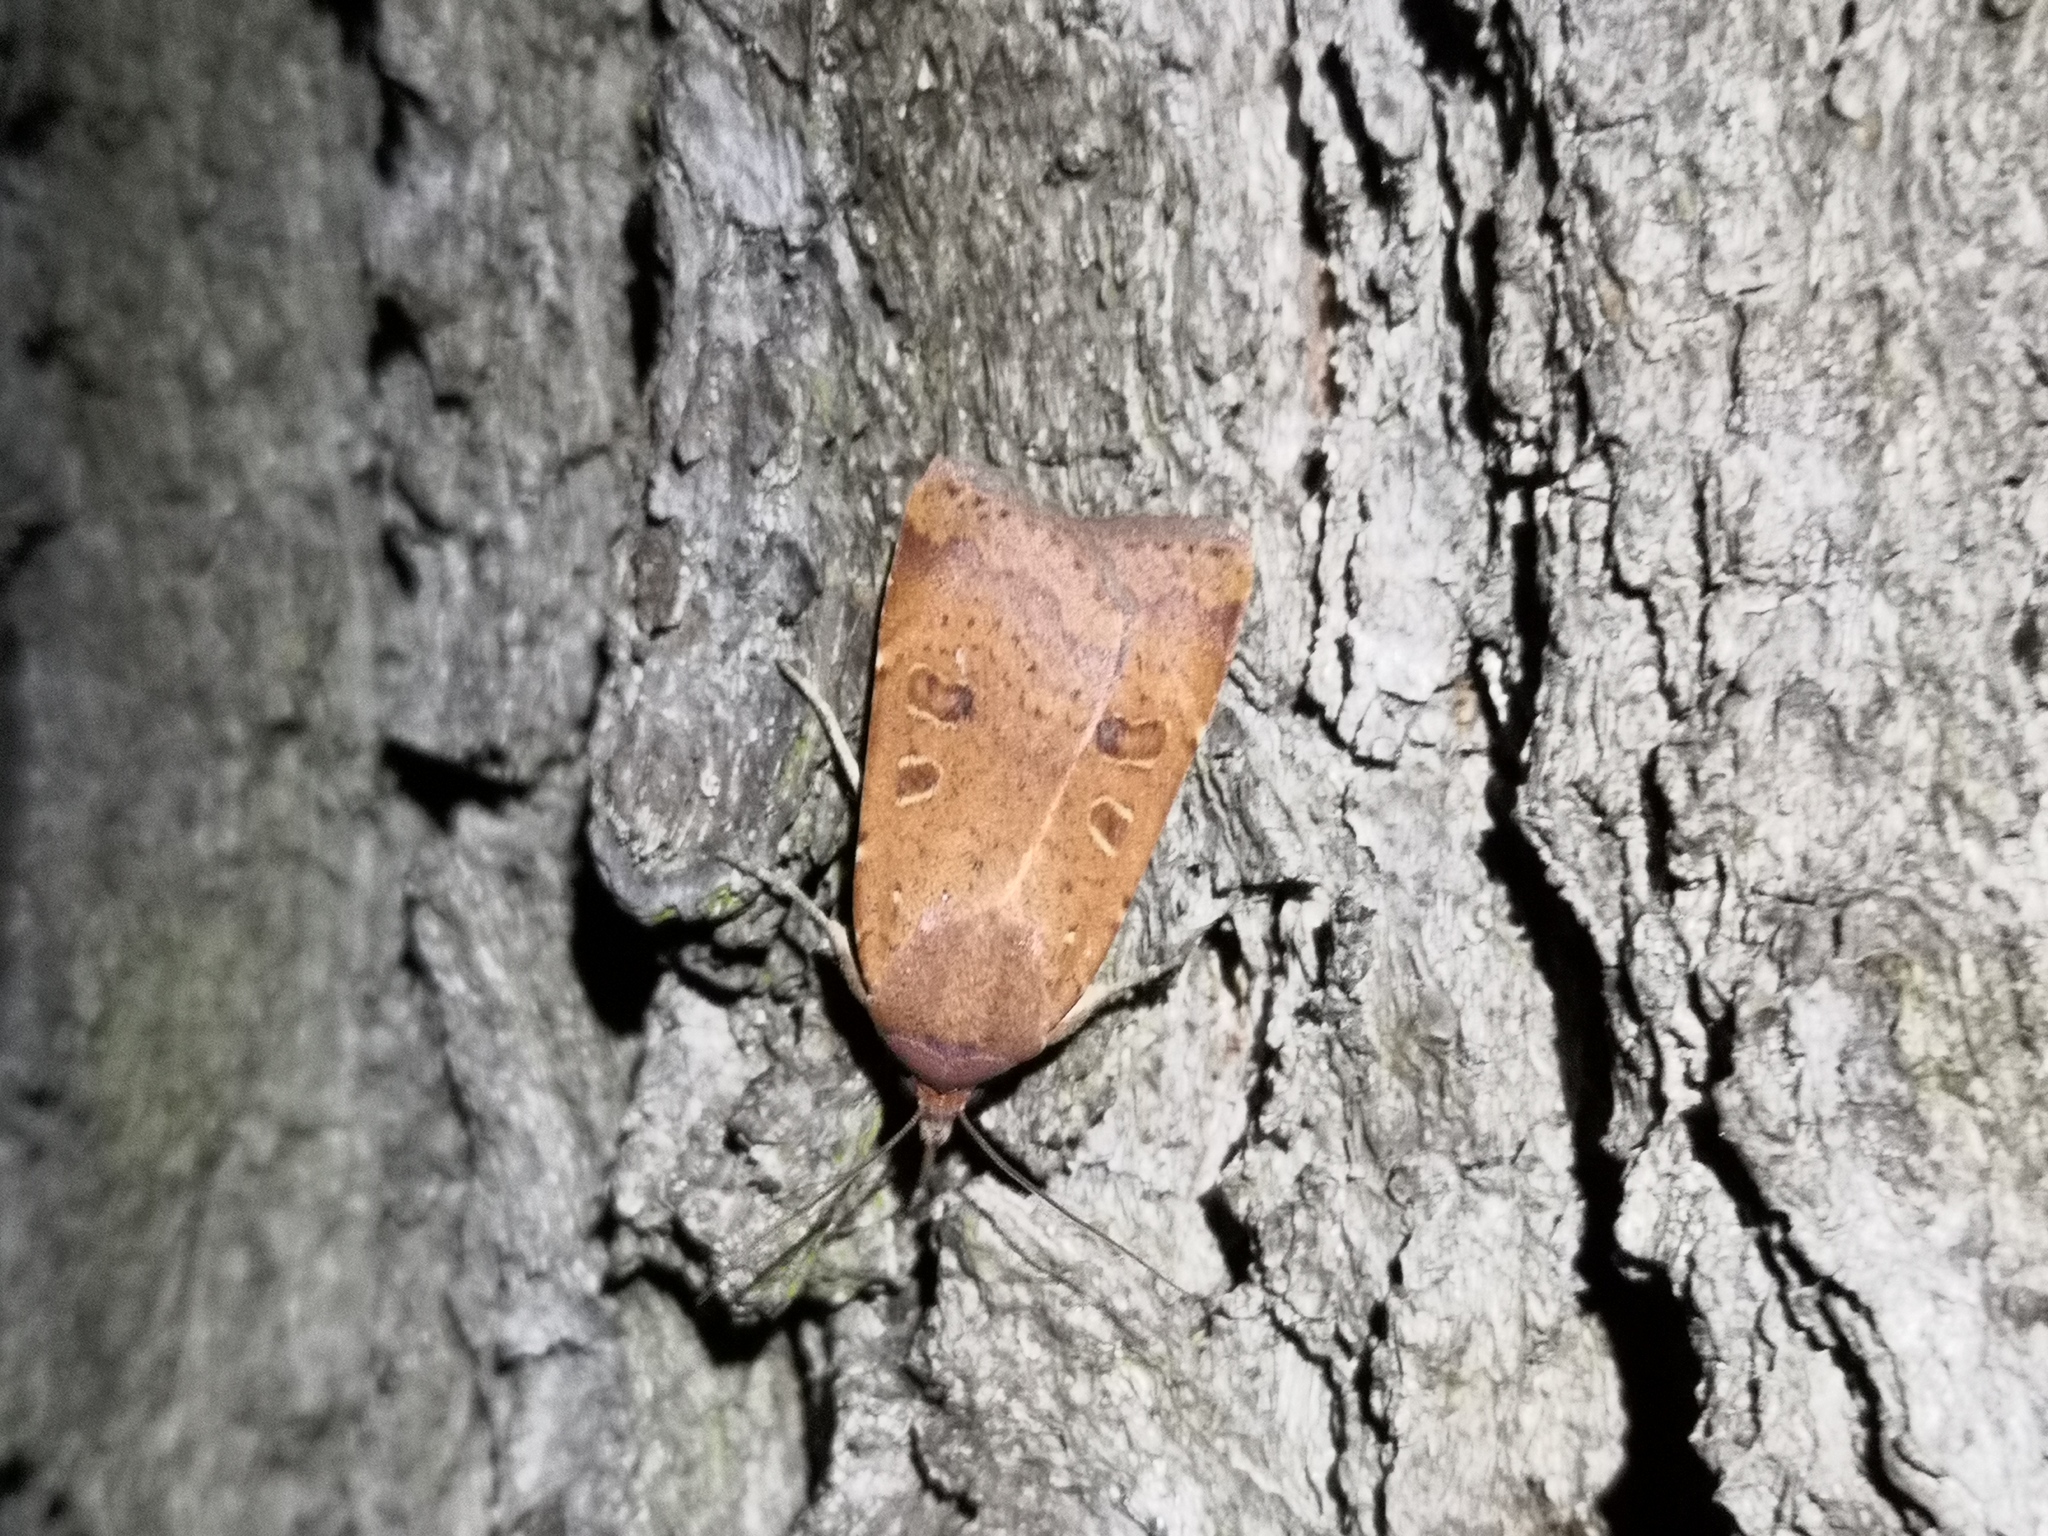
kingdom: Animalia
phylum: Arthropoda
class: Insecta
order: Lepidoptera
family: Noctuidae
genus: Noctua
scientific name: Noctua comes
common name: Lesser yellow underwing
